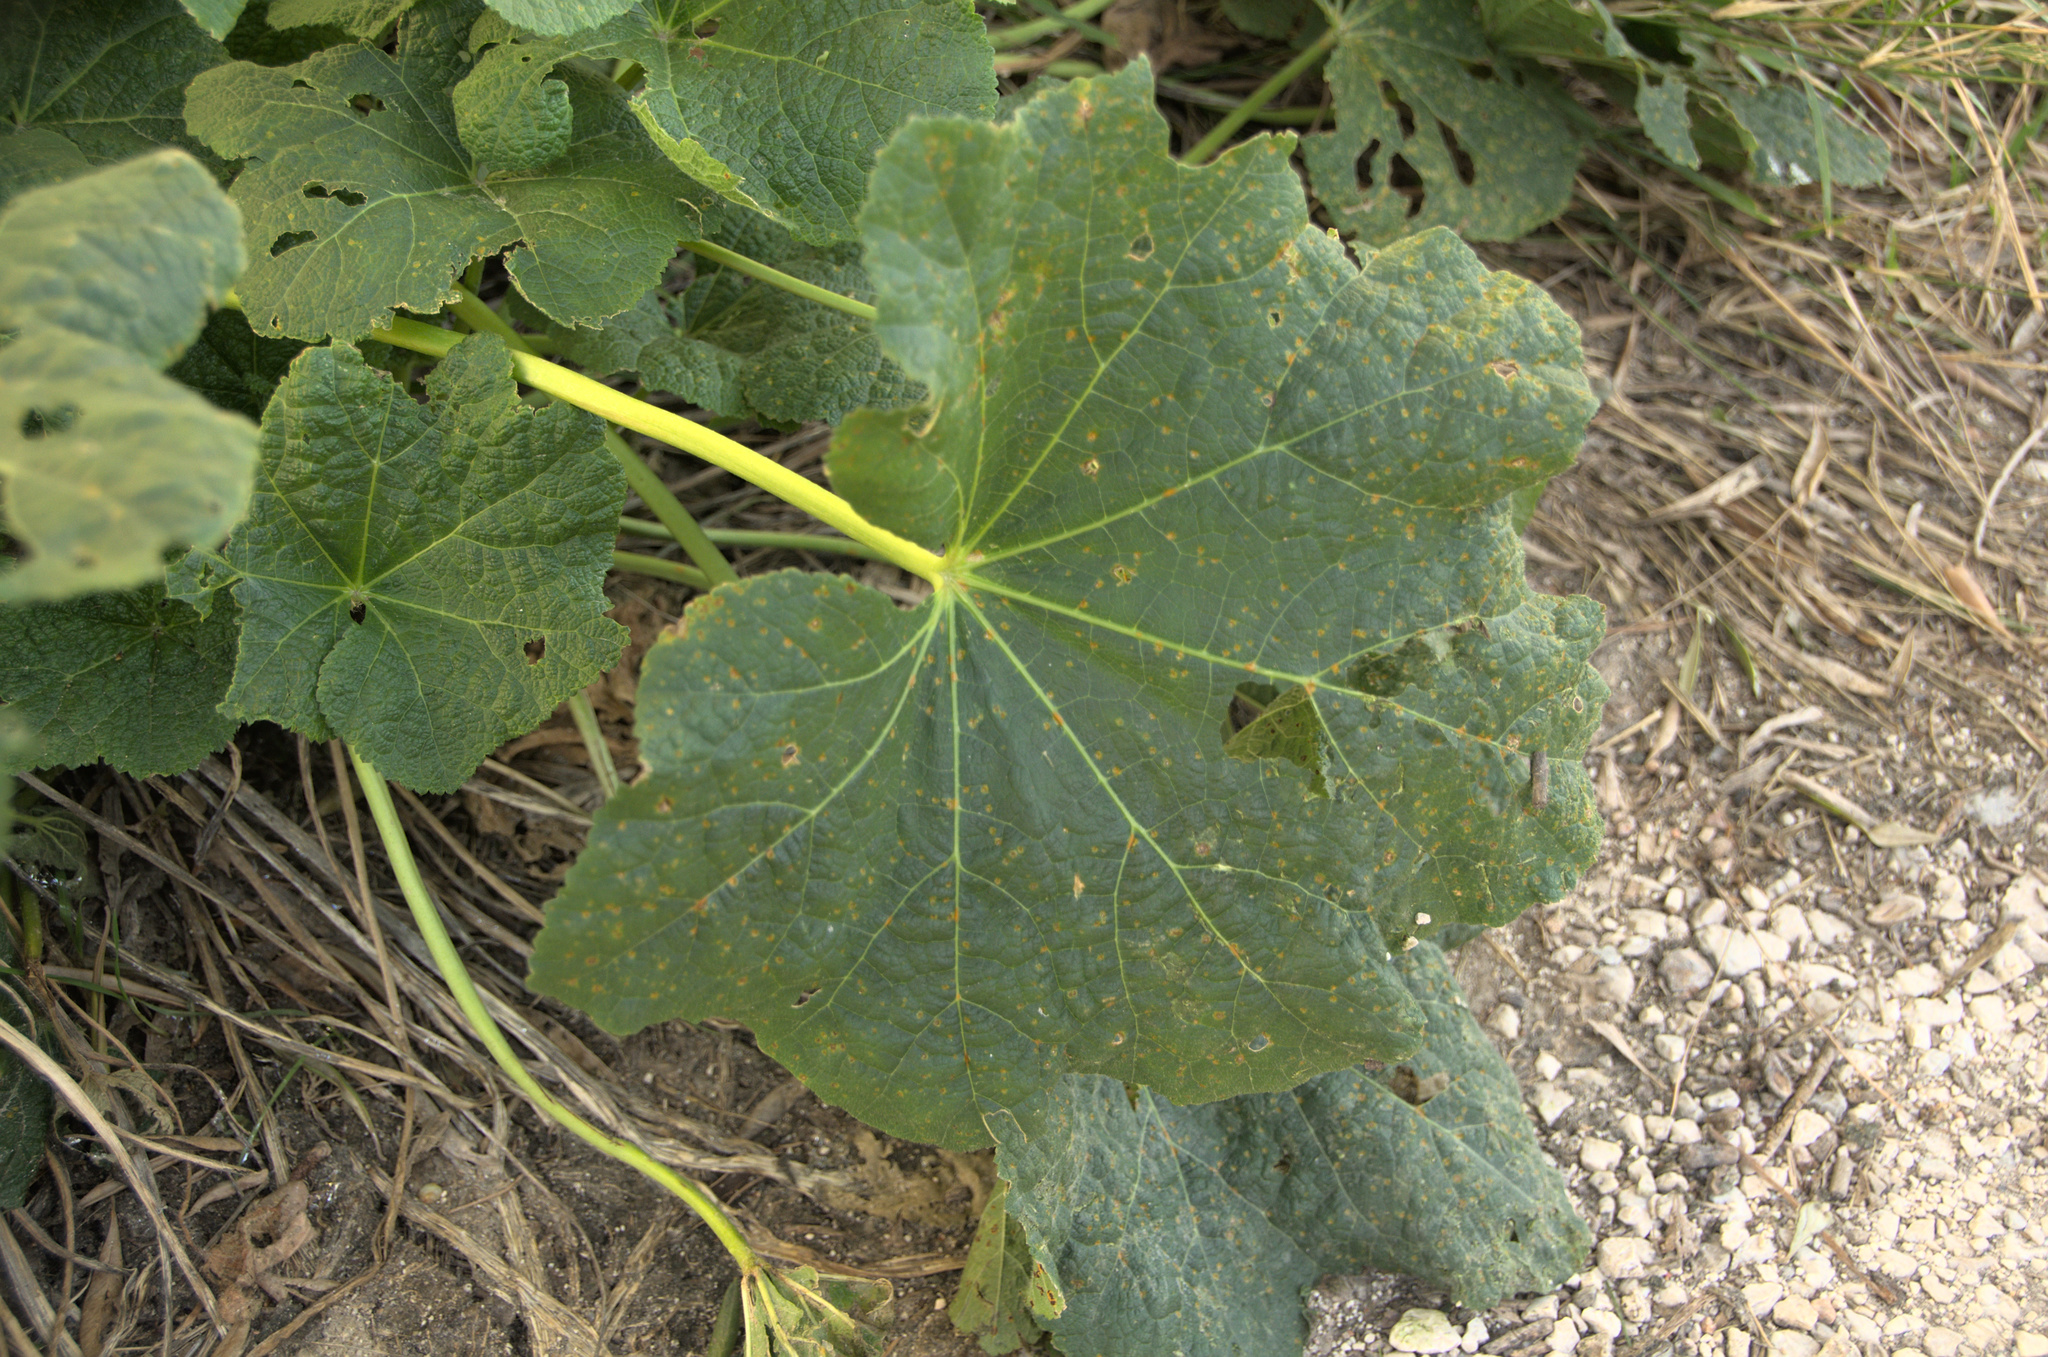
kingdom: Plantae
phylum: Tracheophyta
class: Magnoliopsida
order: Malvales
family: Malvaceae
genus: Alcea
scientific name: Alcea rosea
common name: Hollyhock
